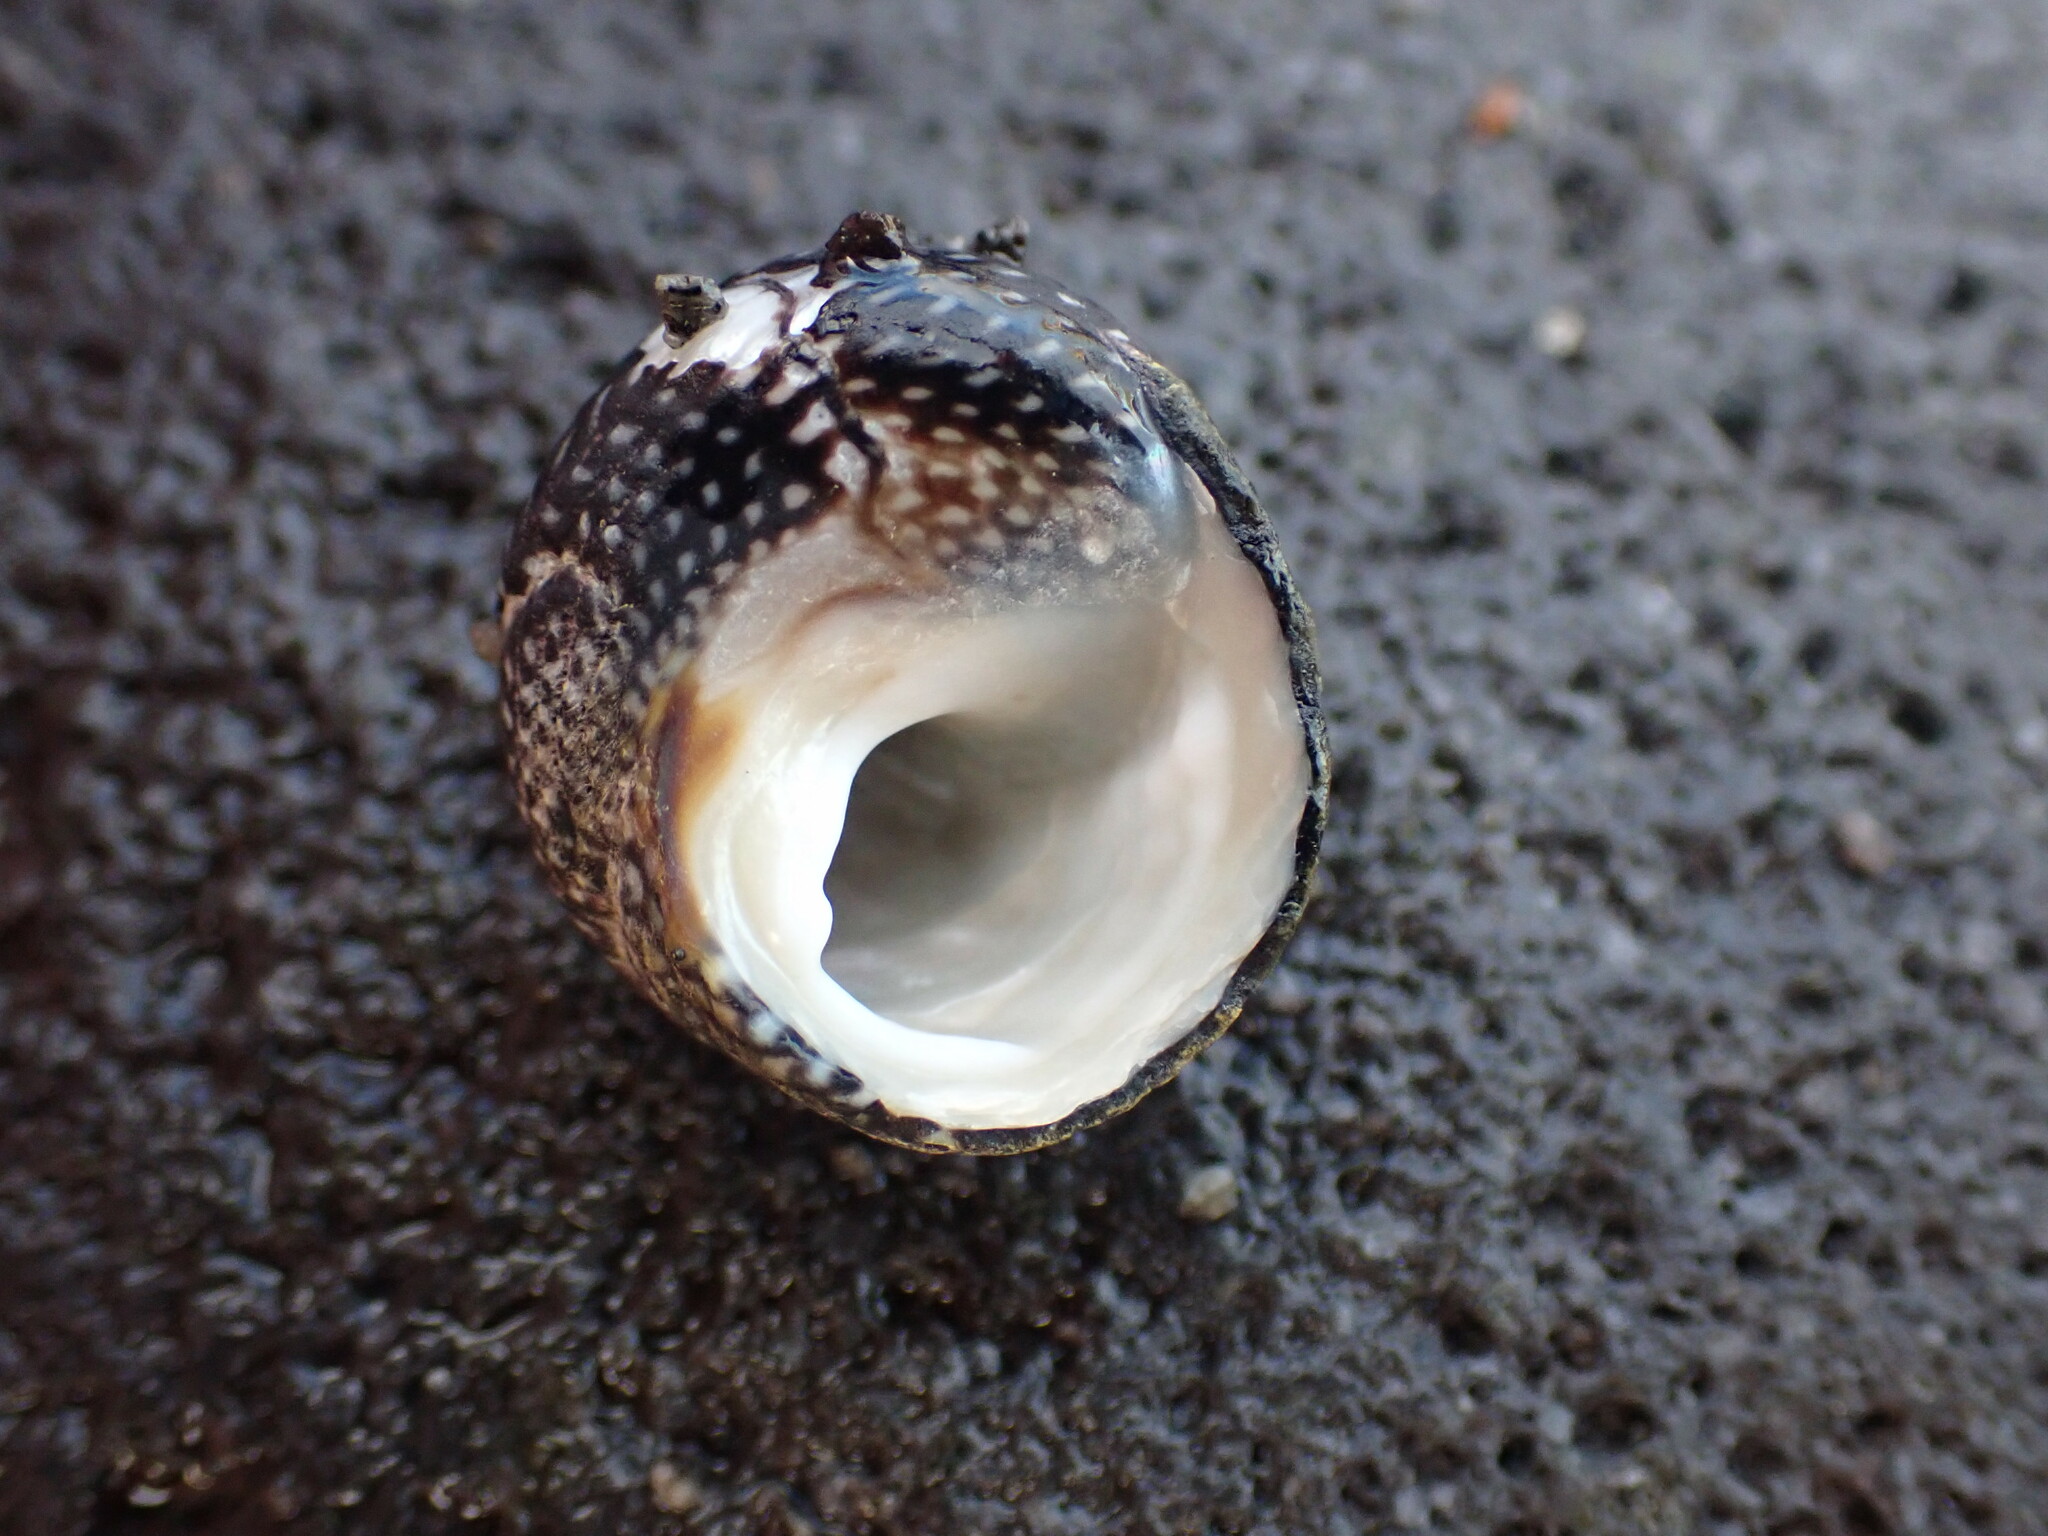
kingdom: Animalia
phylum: Mollusca
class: Gastropoda
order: Trochida
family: Trochidae
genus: Diloma
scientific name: Diloma aethiops
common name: Scorched monodont
